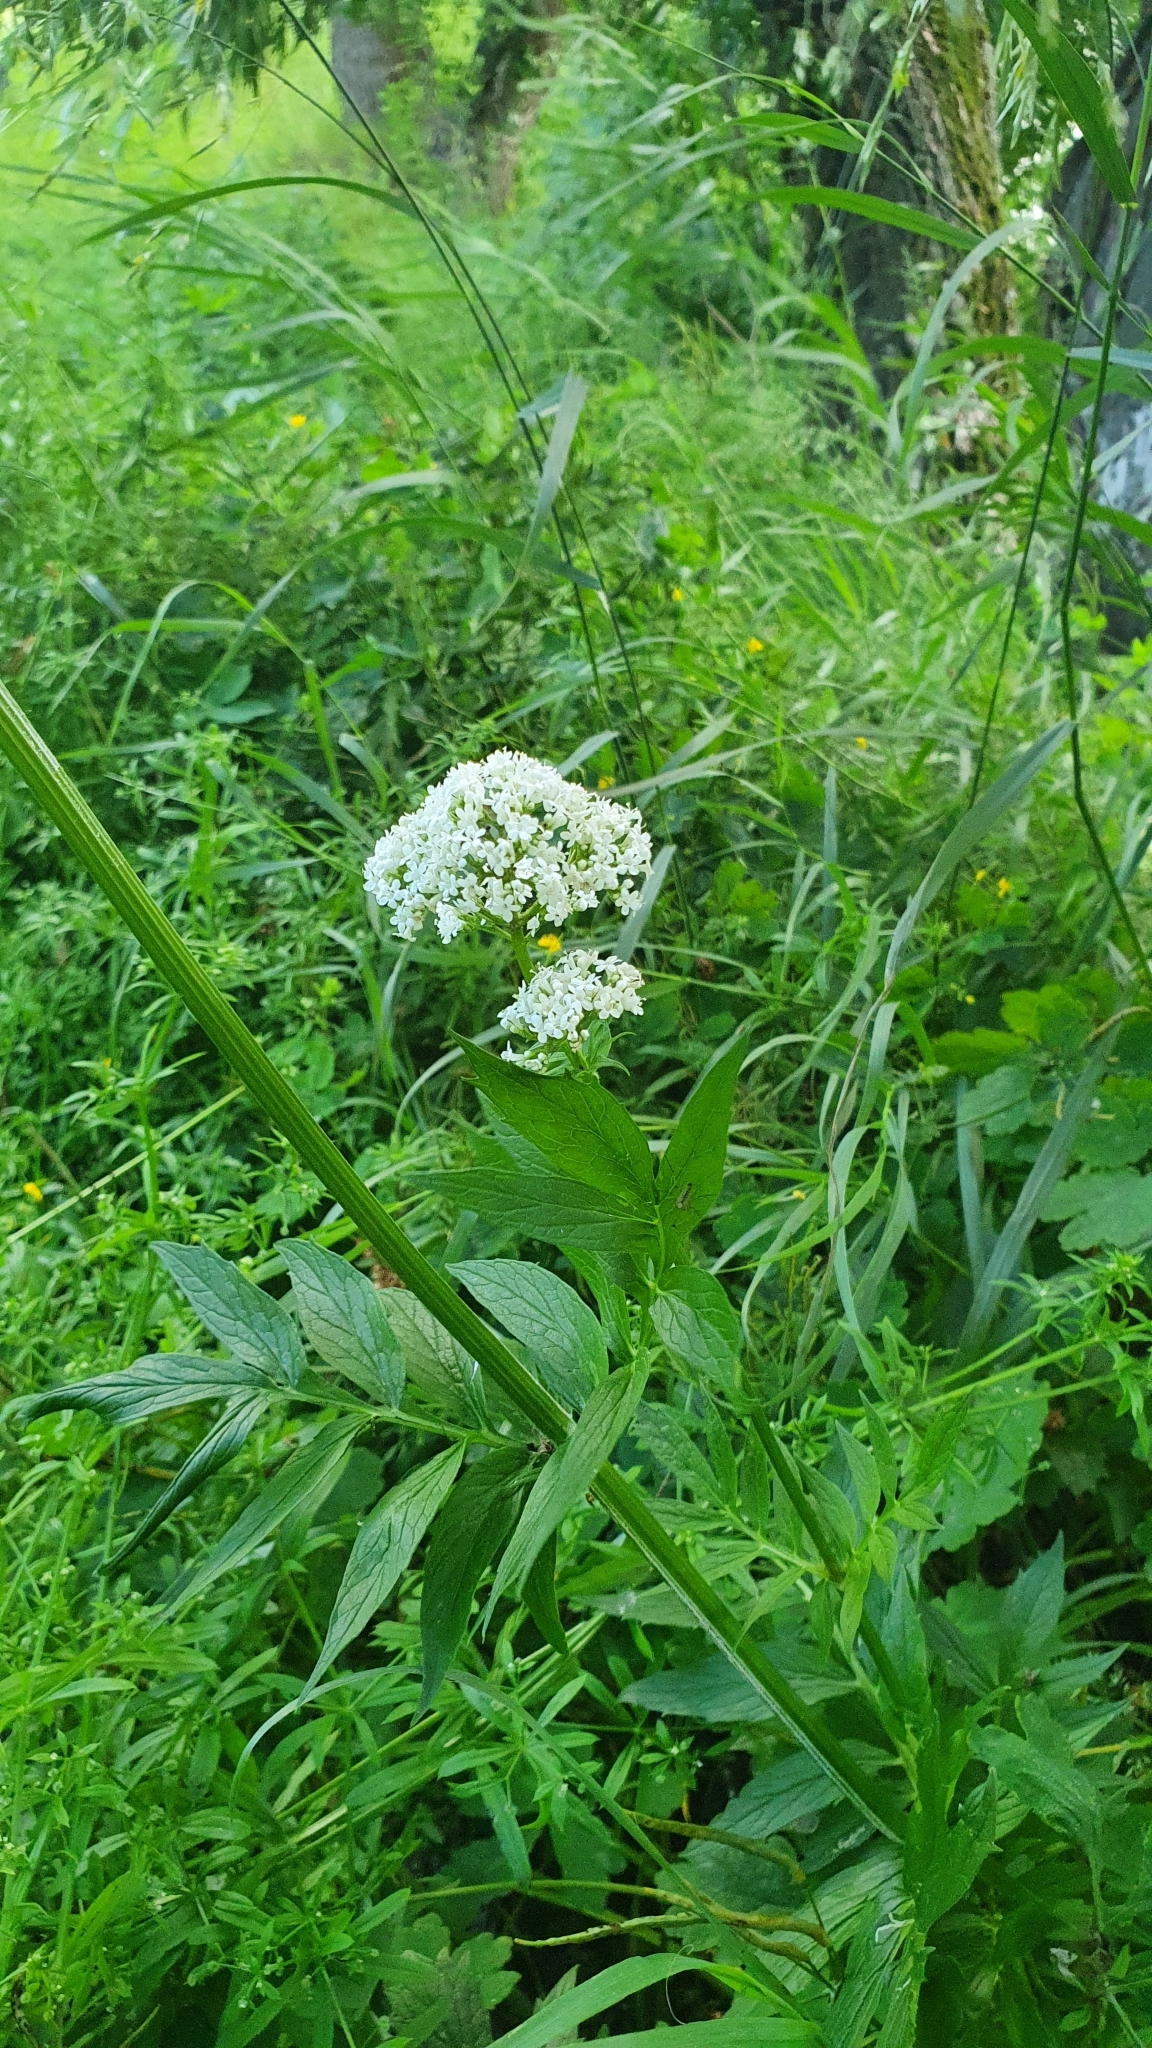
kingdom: Plantae
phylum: Tracheophyta
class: Magnoliopsida
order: Dipsacales
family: Caprifoliaceae
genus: Valeriana
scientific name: Valeriana officinalis
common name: Common valerian
